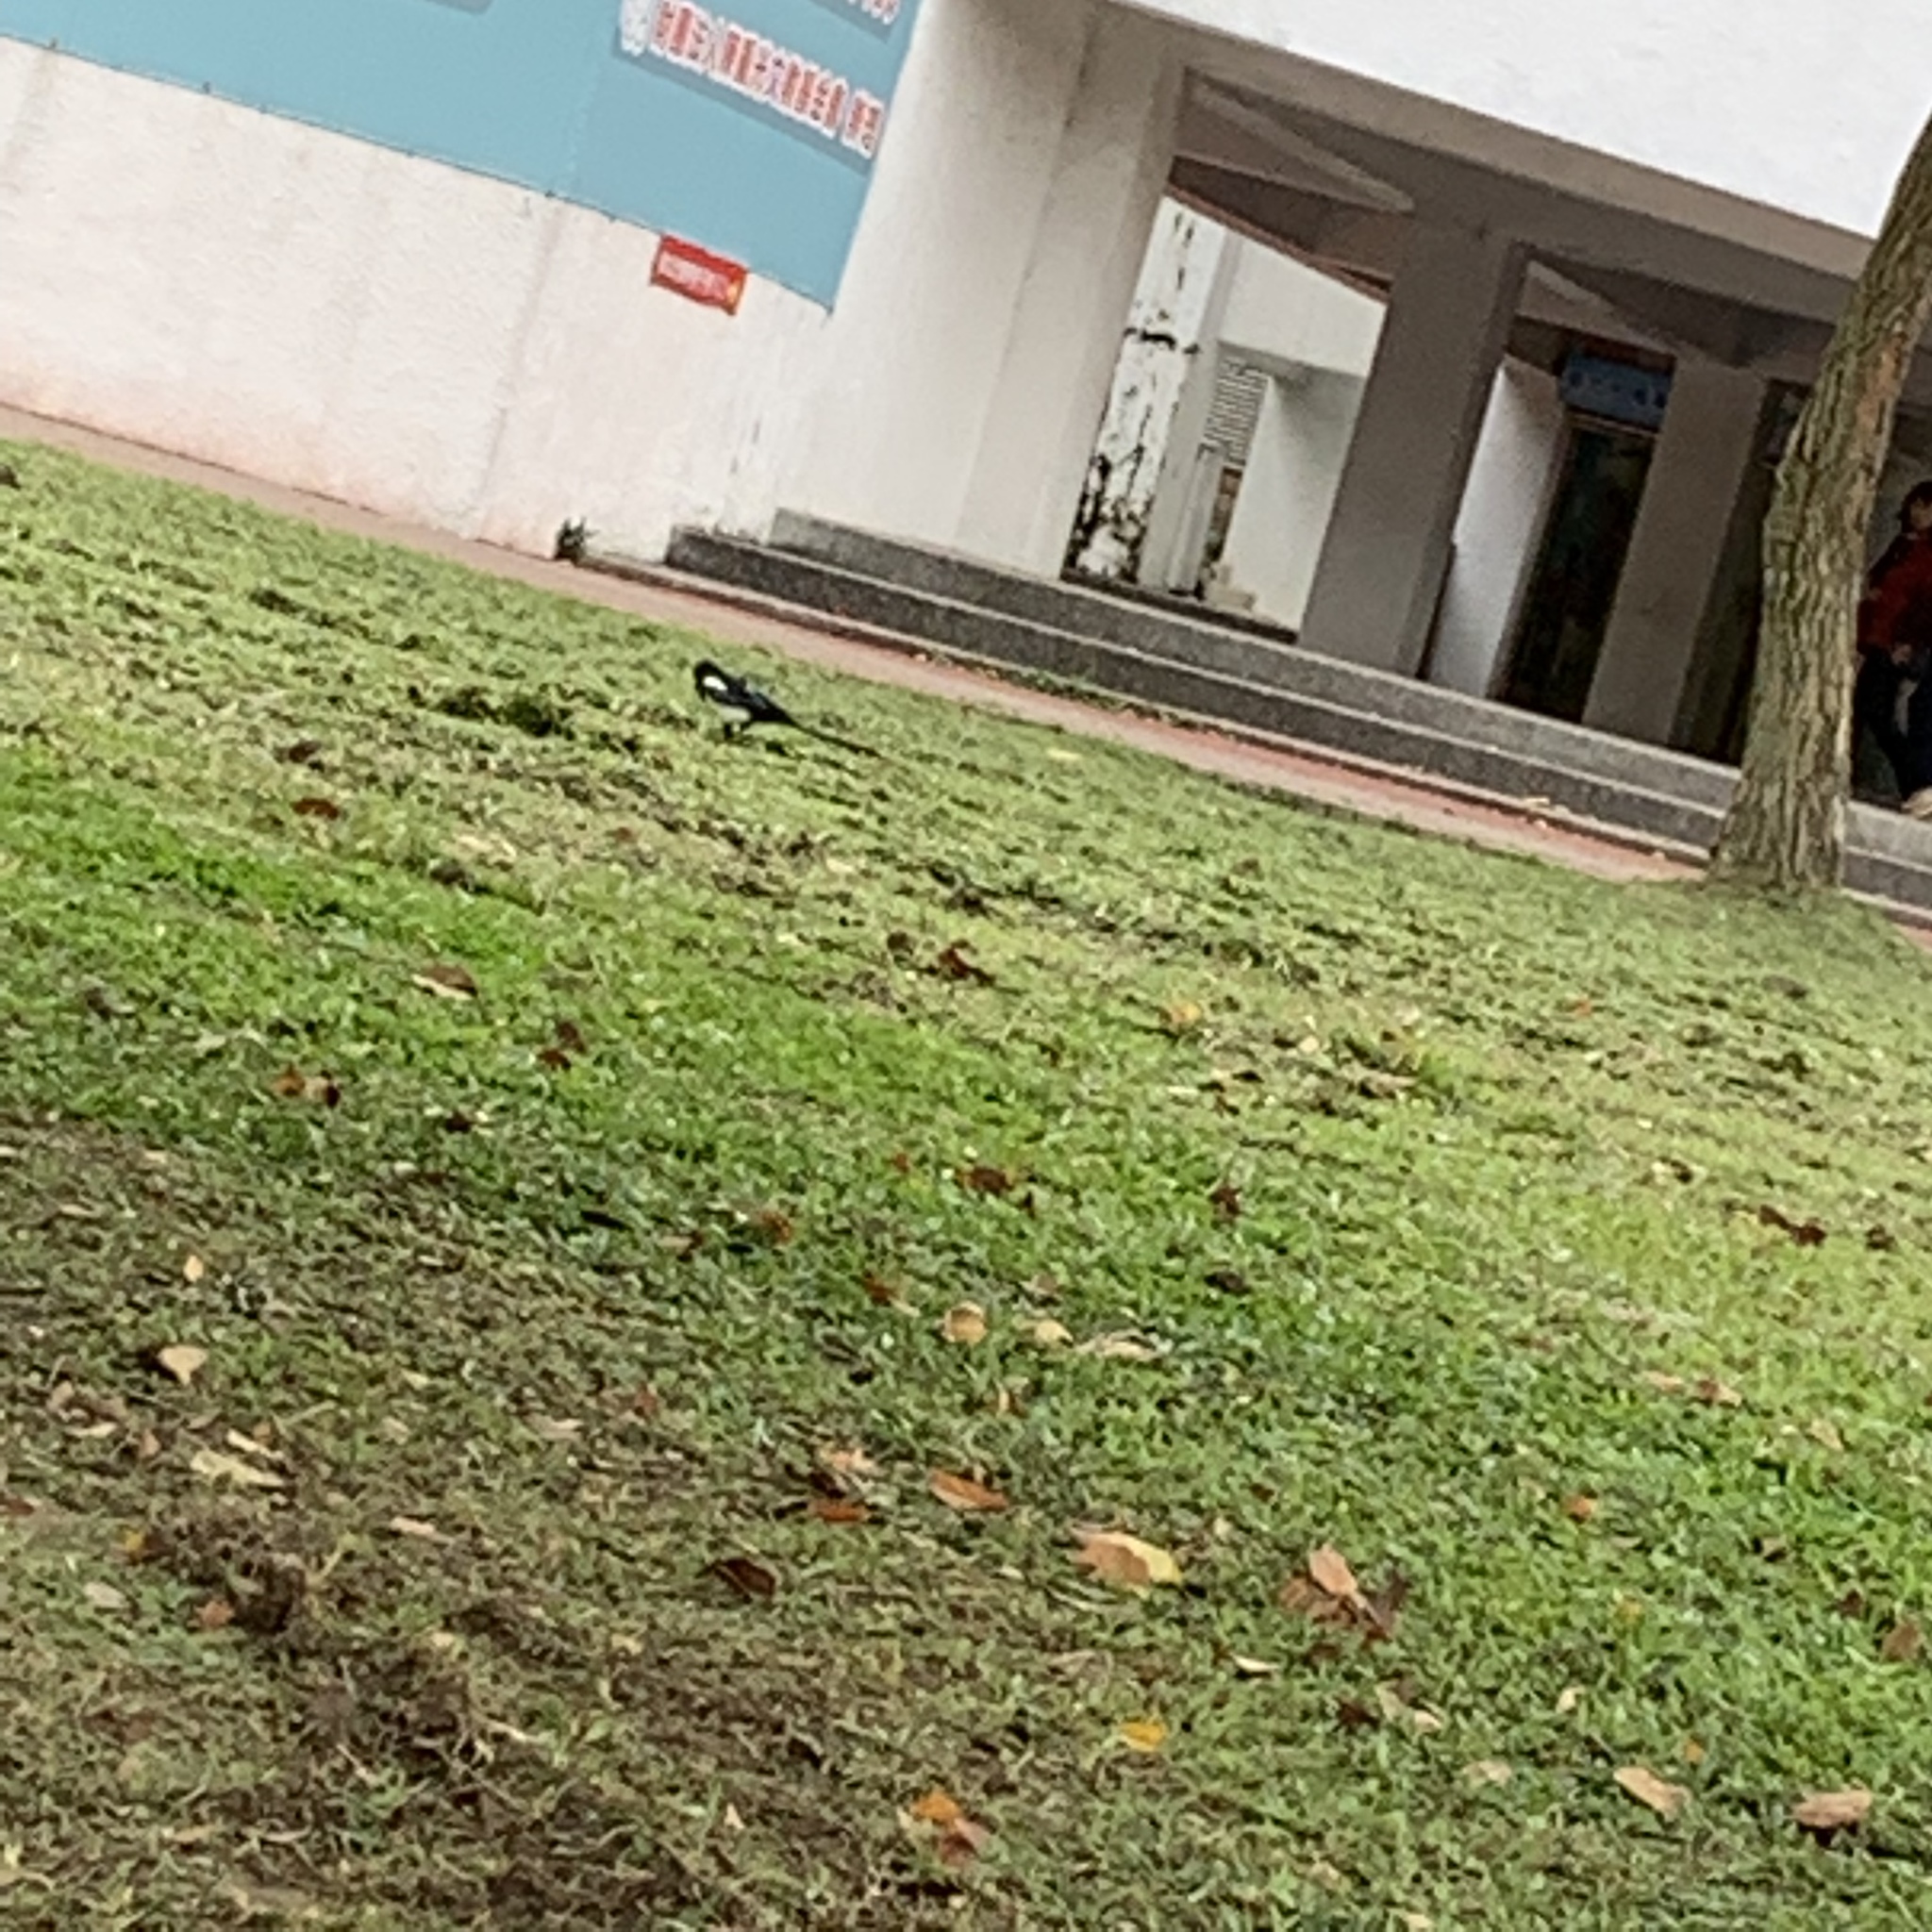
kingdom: Animalia
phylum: Chordata
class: Aves
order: Passeriformes
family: Corvidae
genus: Pica
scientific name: Pica serica
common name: Oriental magpie
